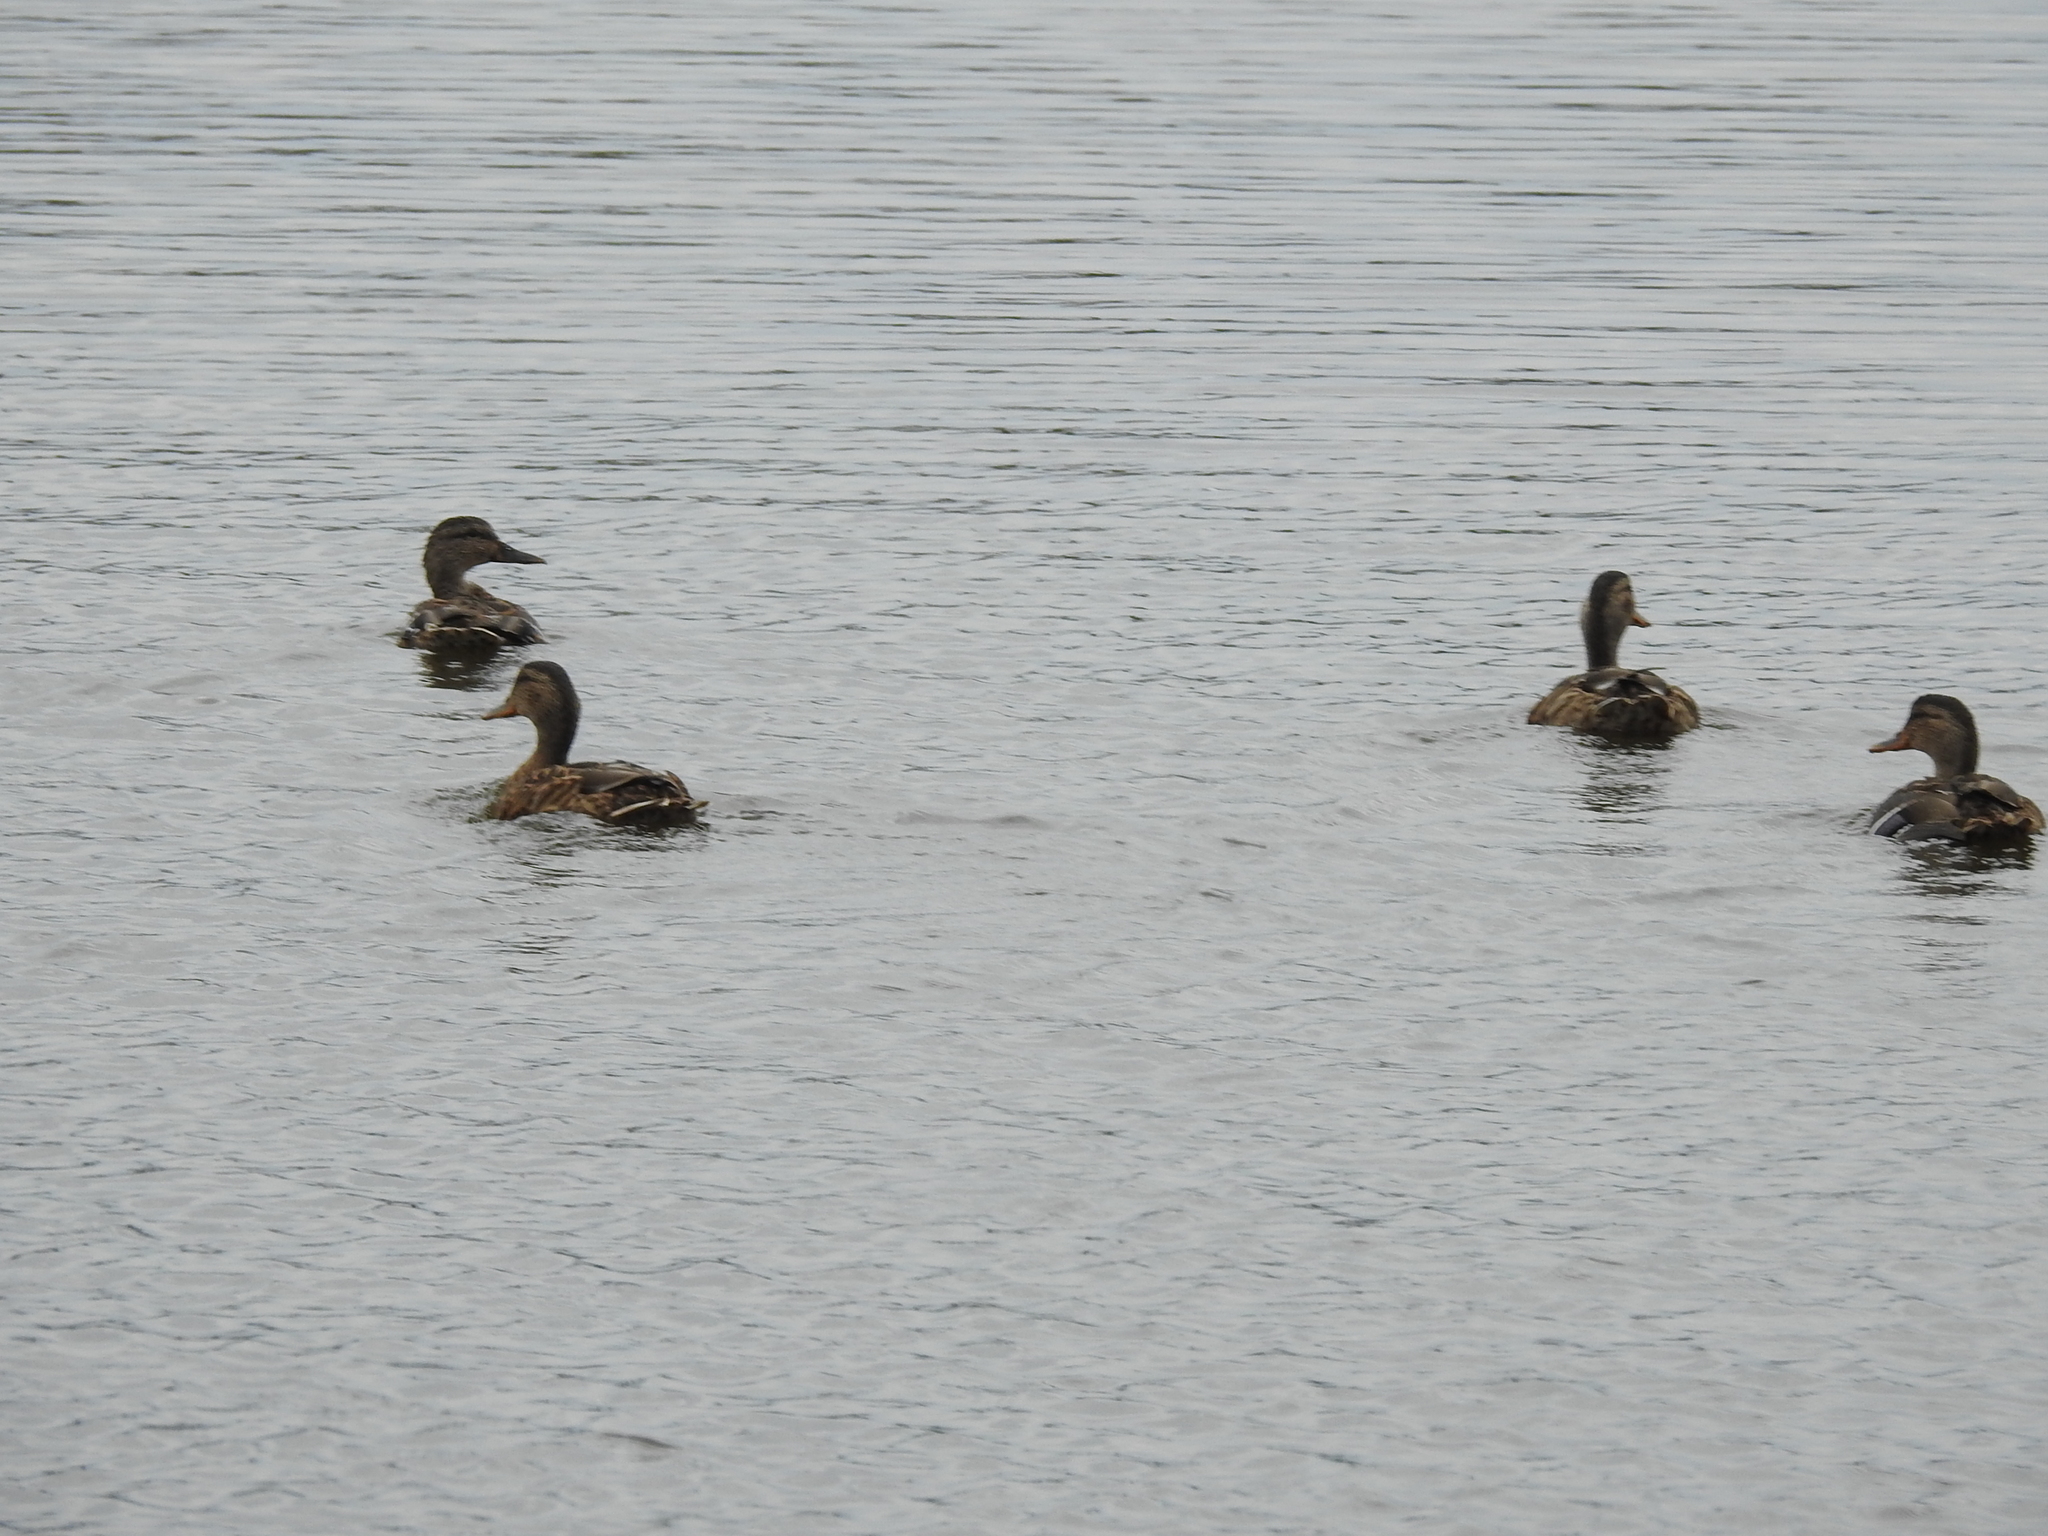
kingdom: Animalia
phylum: Chordata
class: Aves
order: Anseriformes
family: Anatidae
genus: Anas
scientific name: Anas platyrhynchos
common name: Mallard
